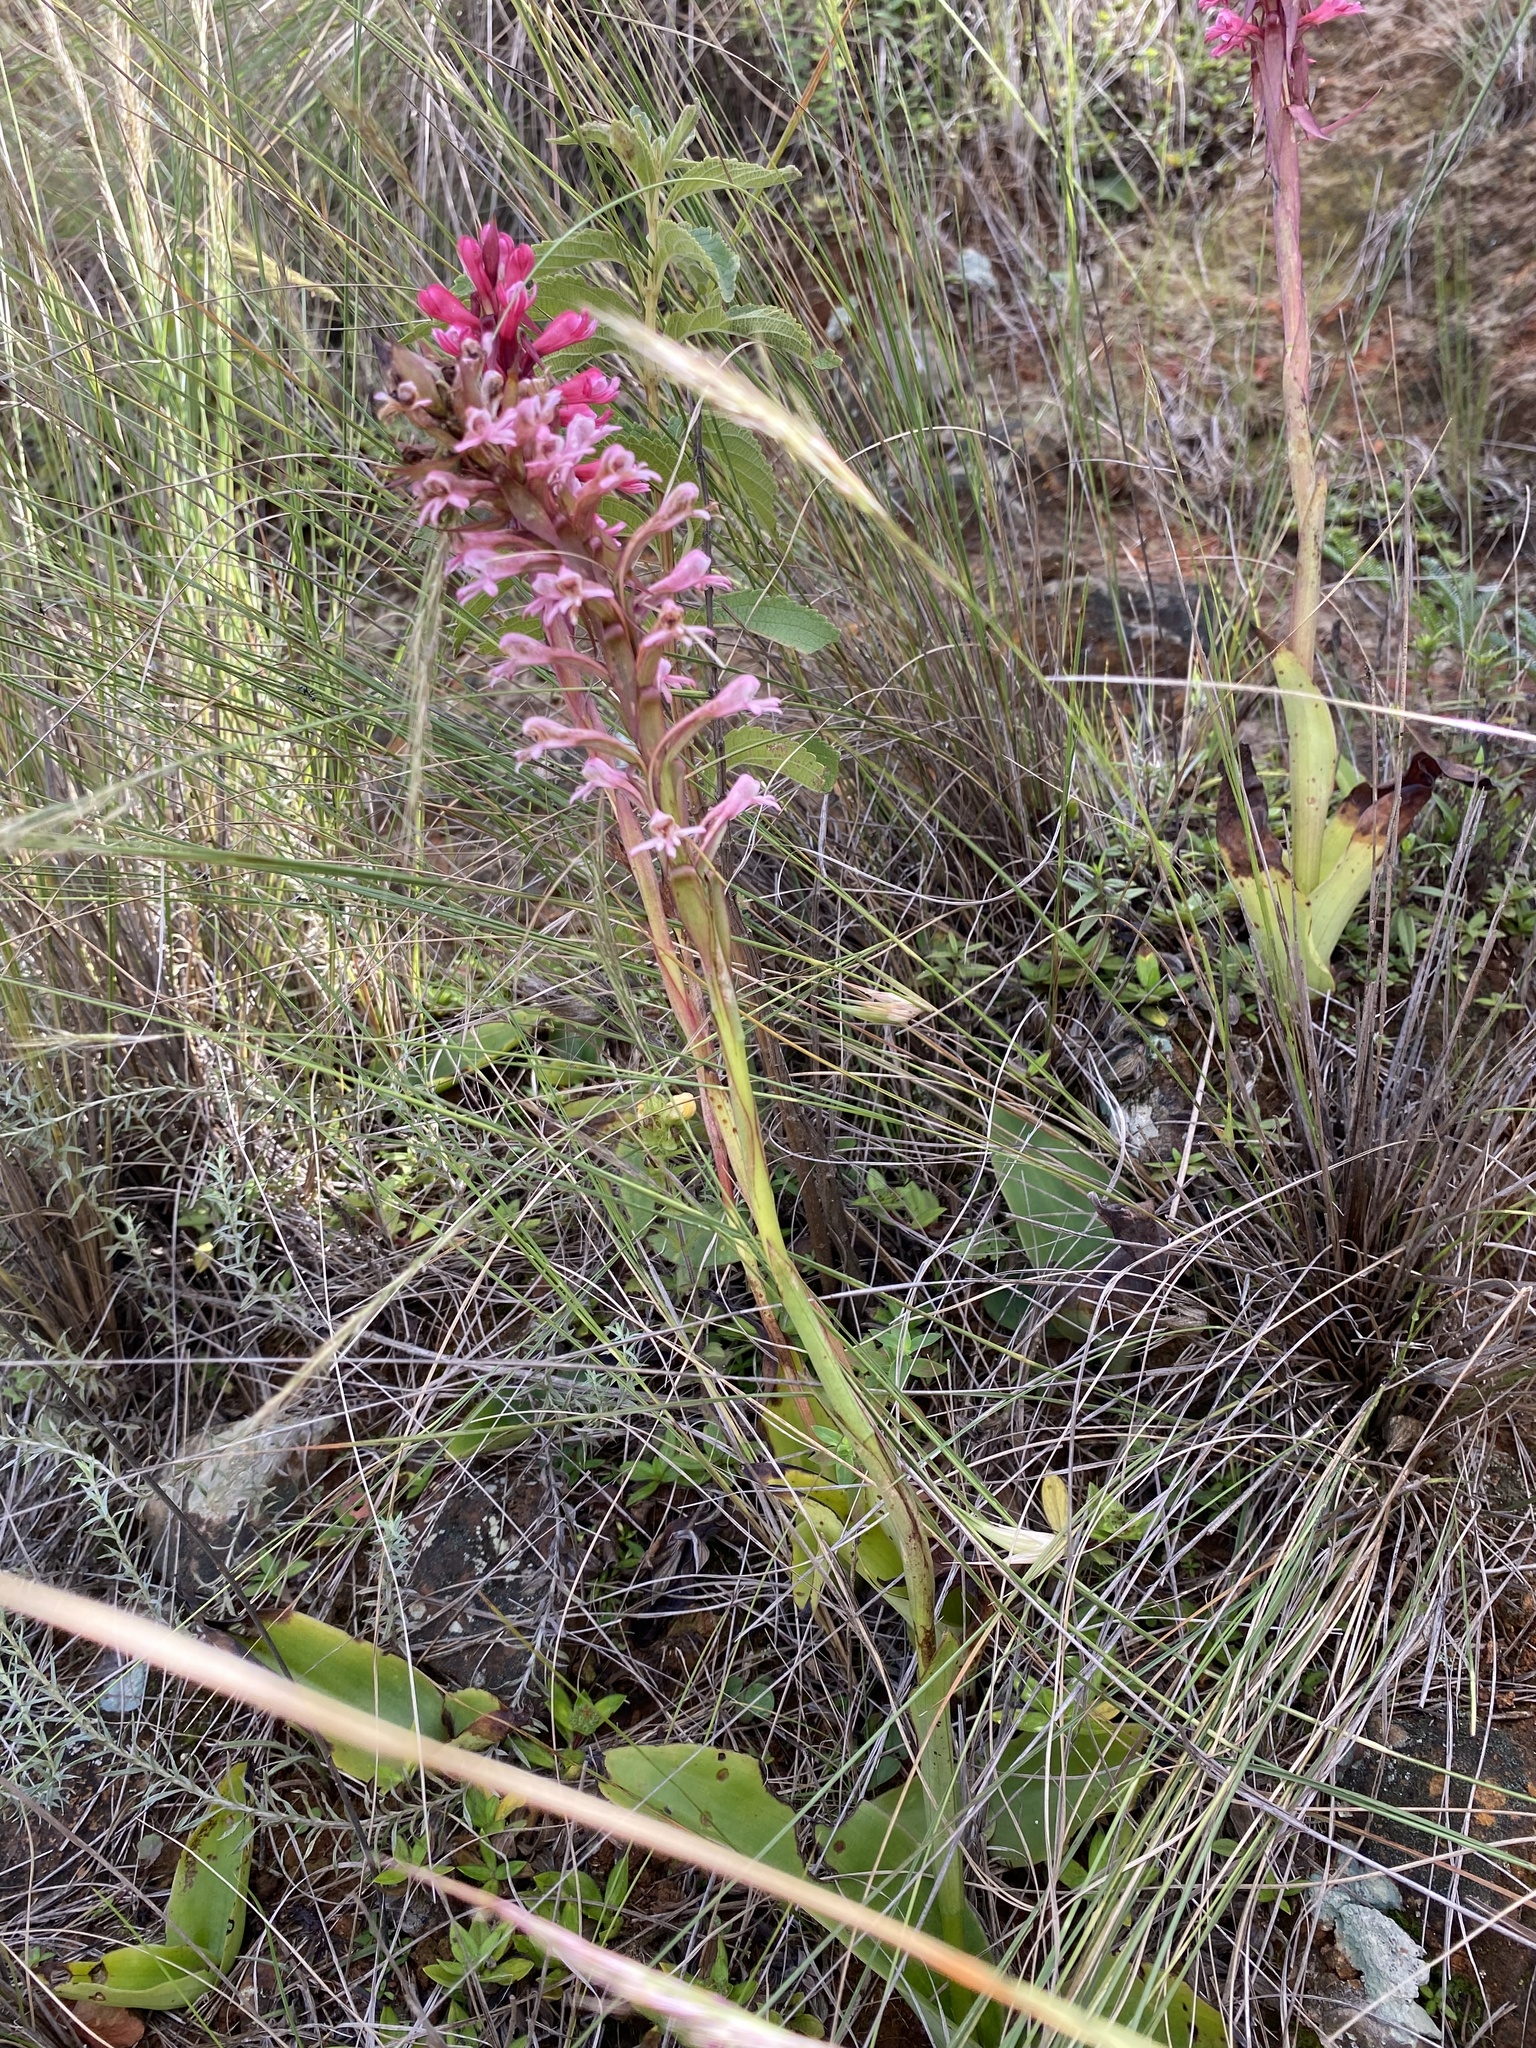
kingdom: Plantae
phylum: Tracheophyta
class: Liliopsida
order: Asparagales
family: Orchidaceae
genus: Satyrium
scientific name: Satyrium macrophyllum
